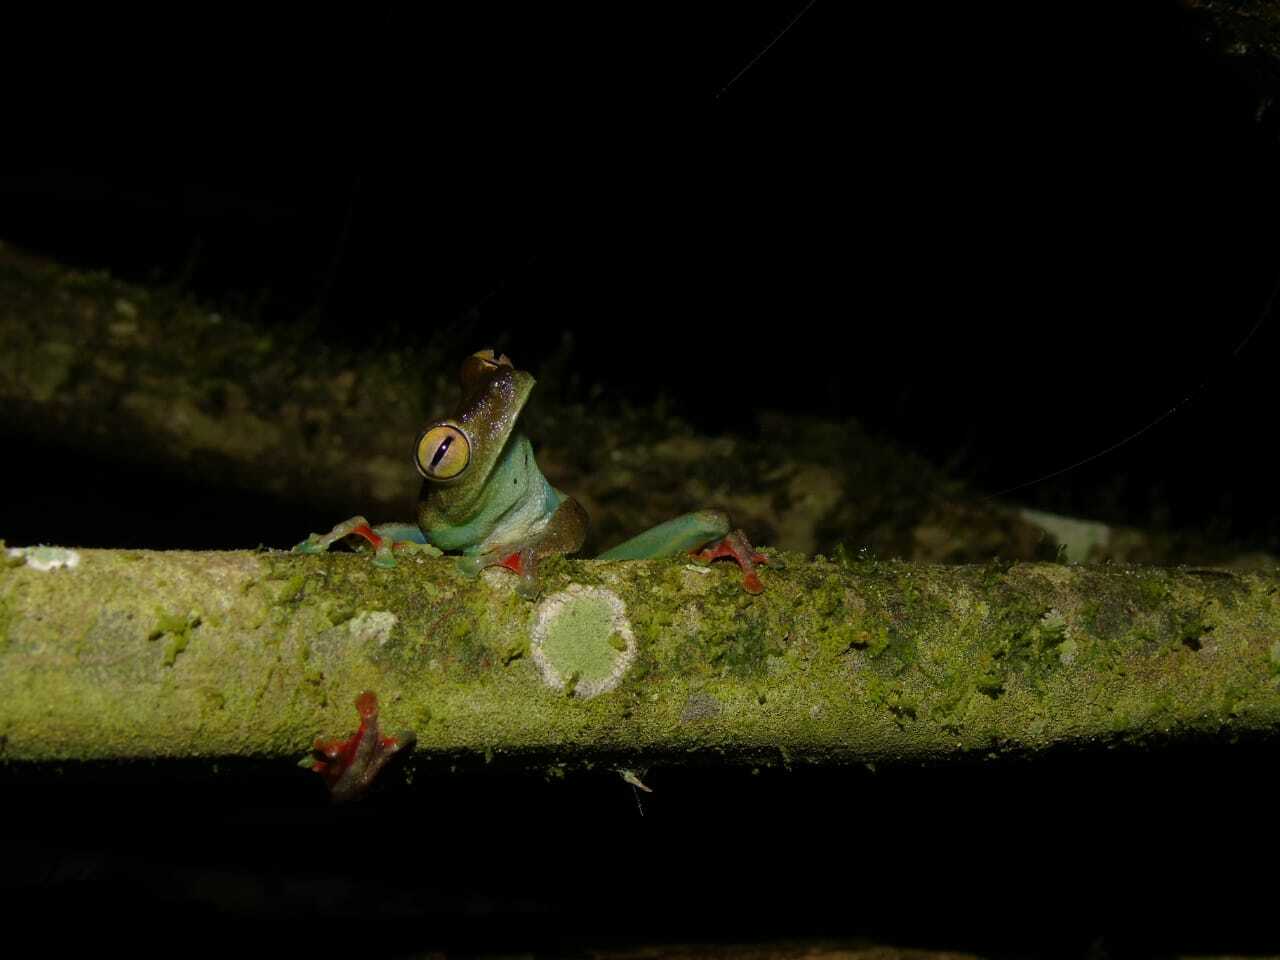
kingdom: Animalia
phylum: Chordata
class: Amphibia
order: Anura
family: Hylidae
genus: Boana
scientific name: Boana rufitela
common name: Canal zone treefrog
